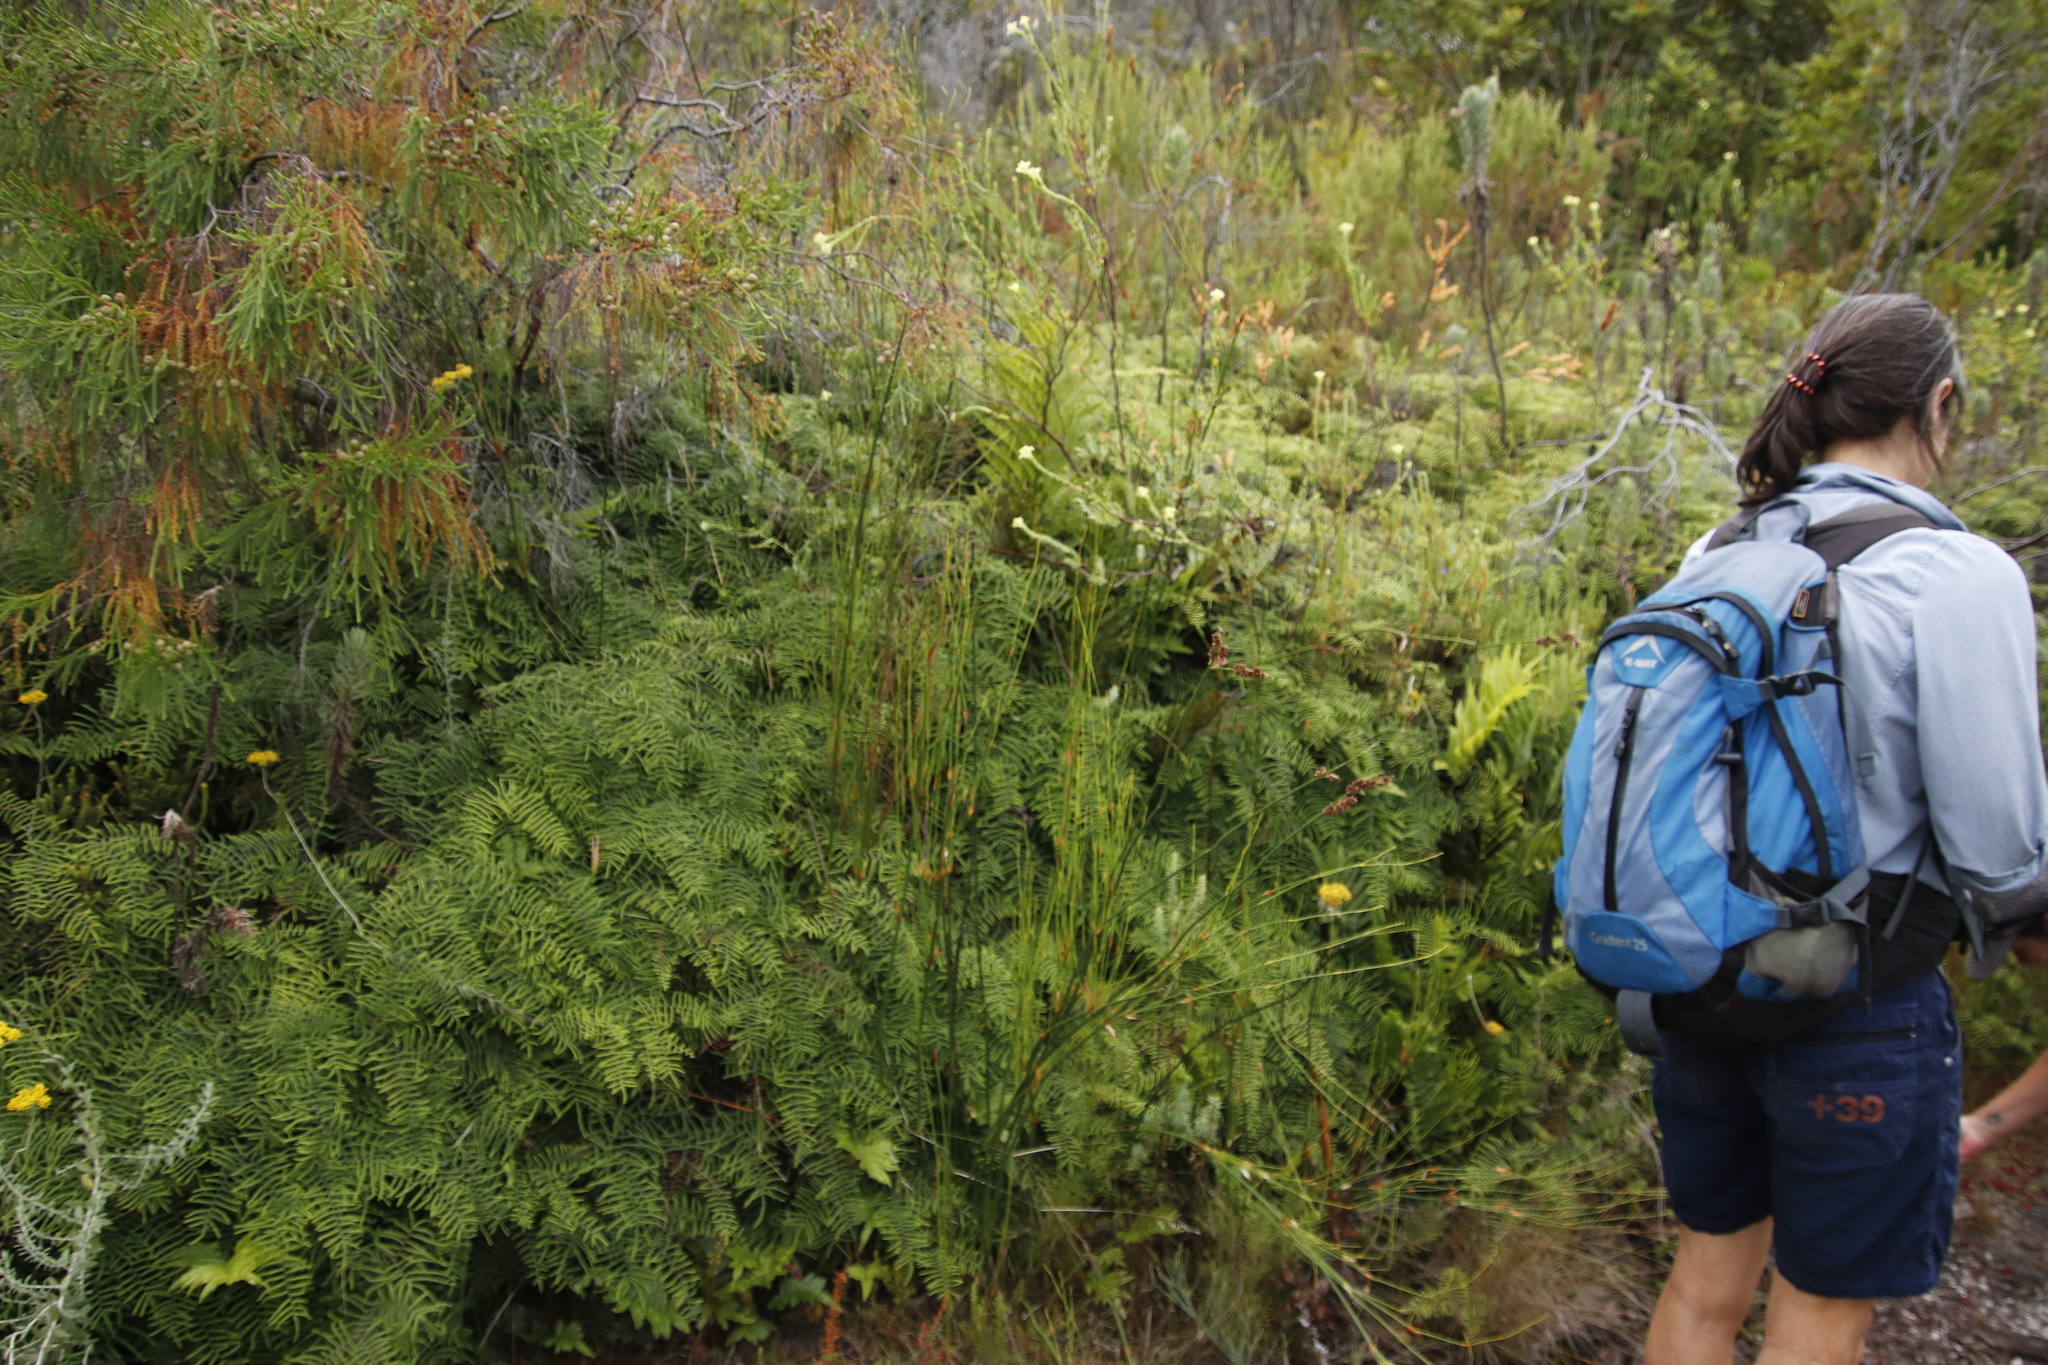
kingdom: Plantae
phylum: Tracheophyta
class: Magnoliopsida
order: Malvales
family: Thymelaeaceae
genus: Gnidia
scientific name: Gnidia oppositifolia
